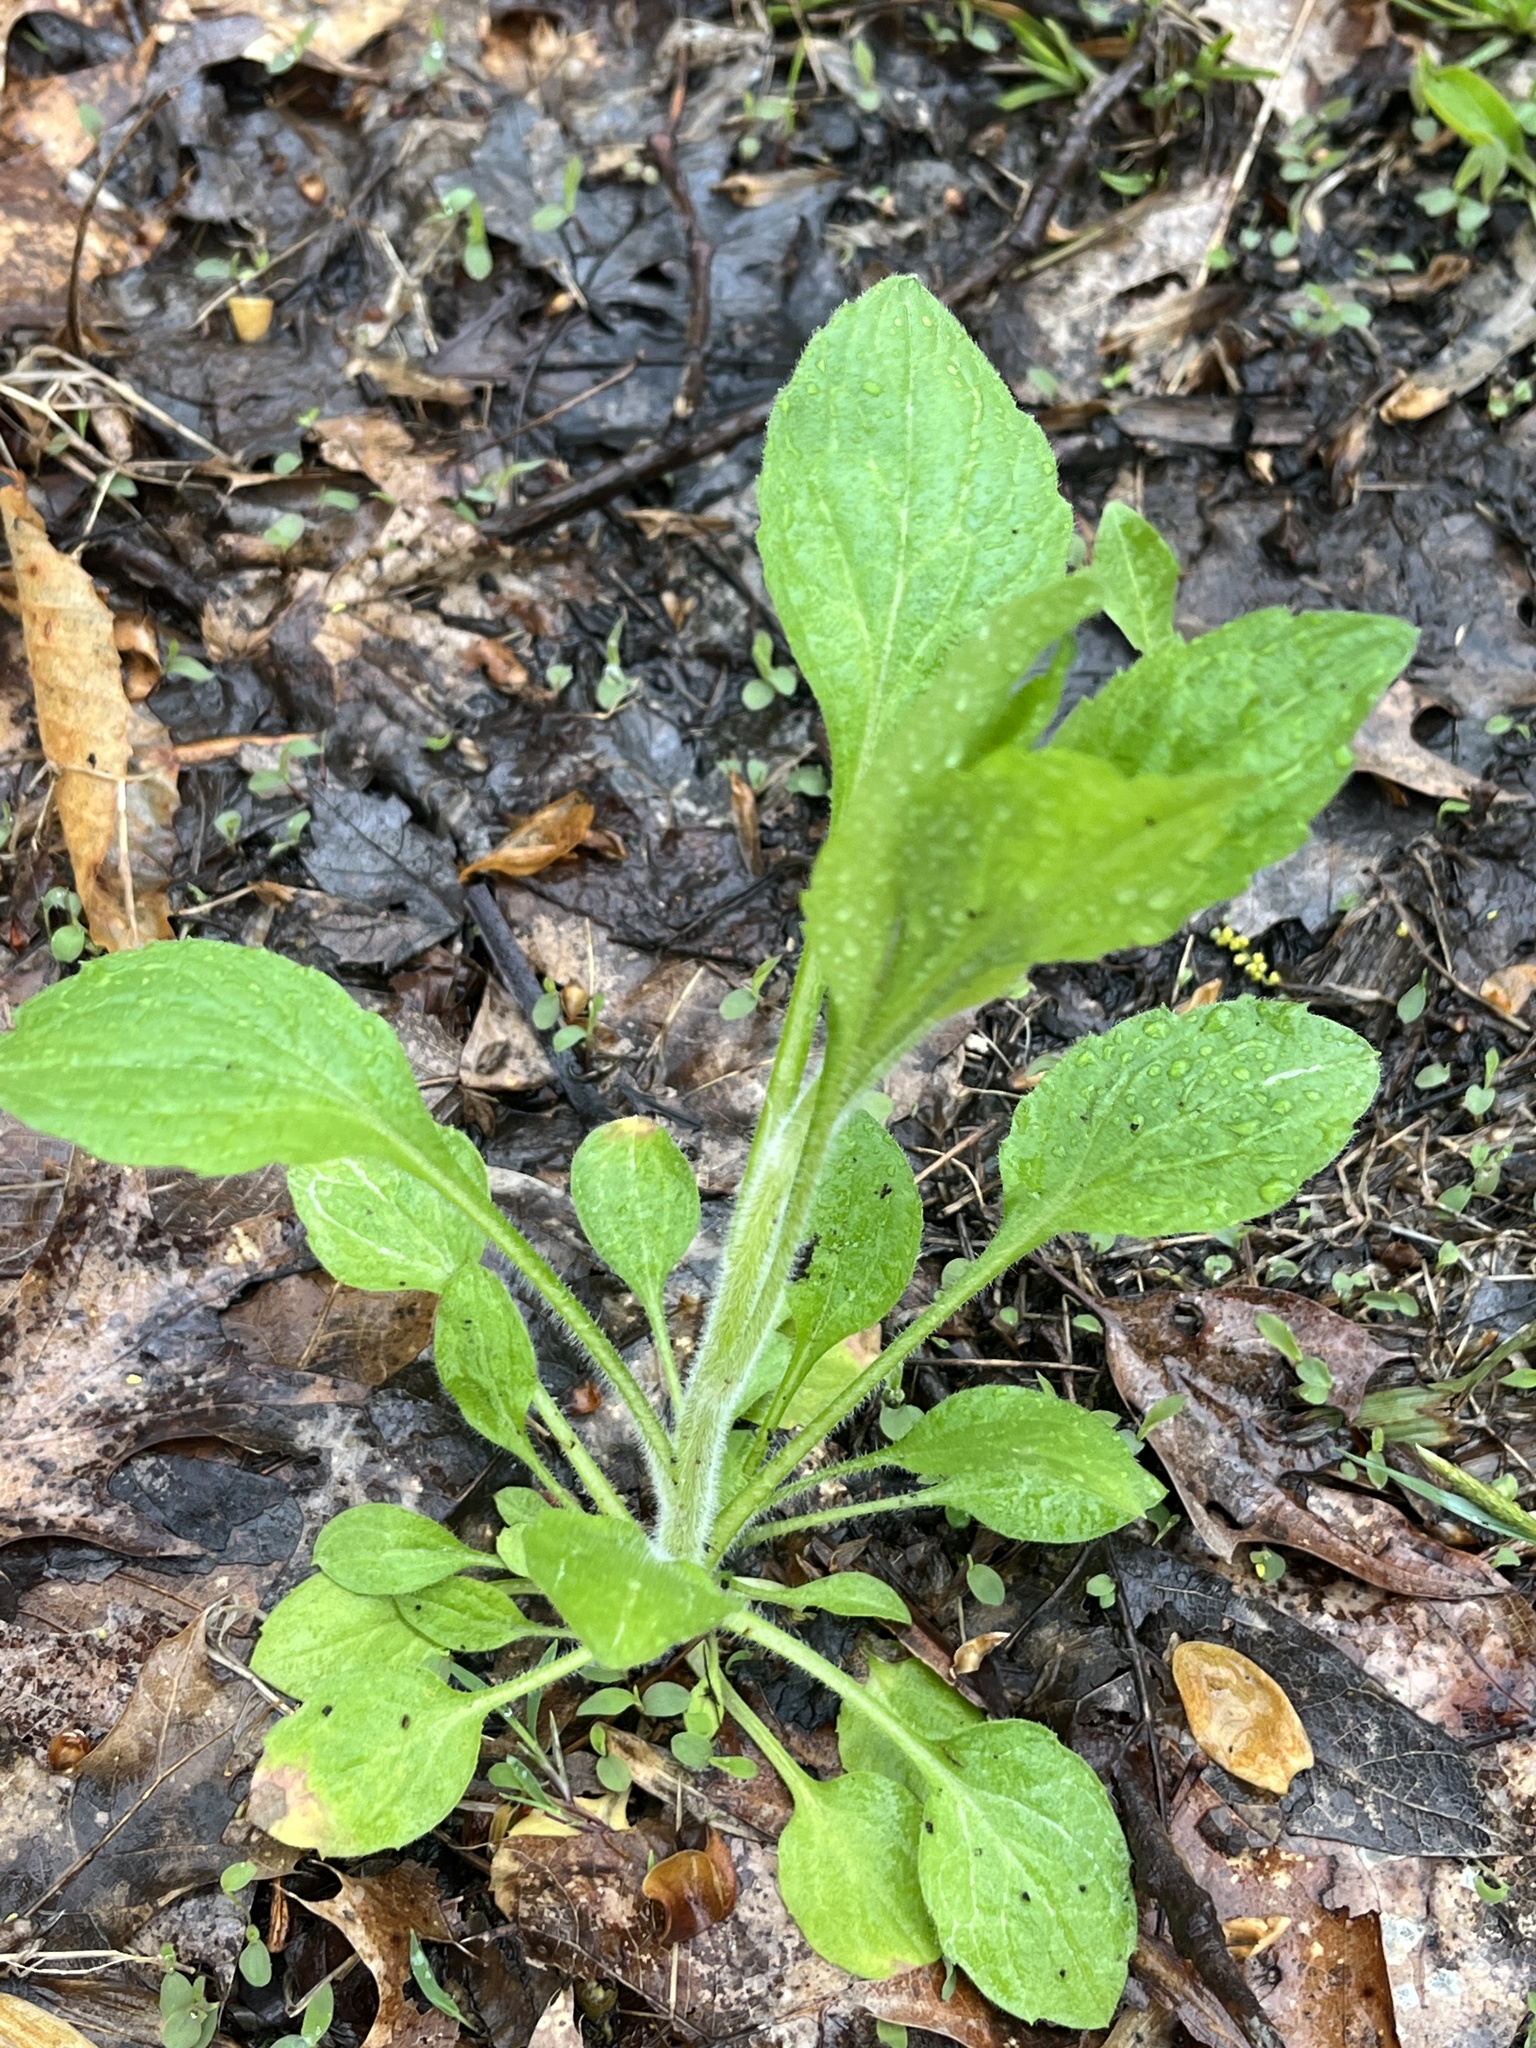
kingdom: Plantae
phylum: Tracheophyta
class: Magnoliopsida
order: Asterales
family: Asteraceae
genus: Erigeron
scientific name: Erigeron annuus
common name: Tall fleabane
